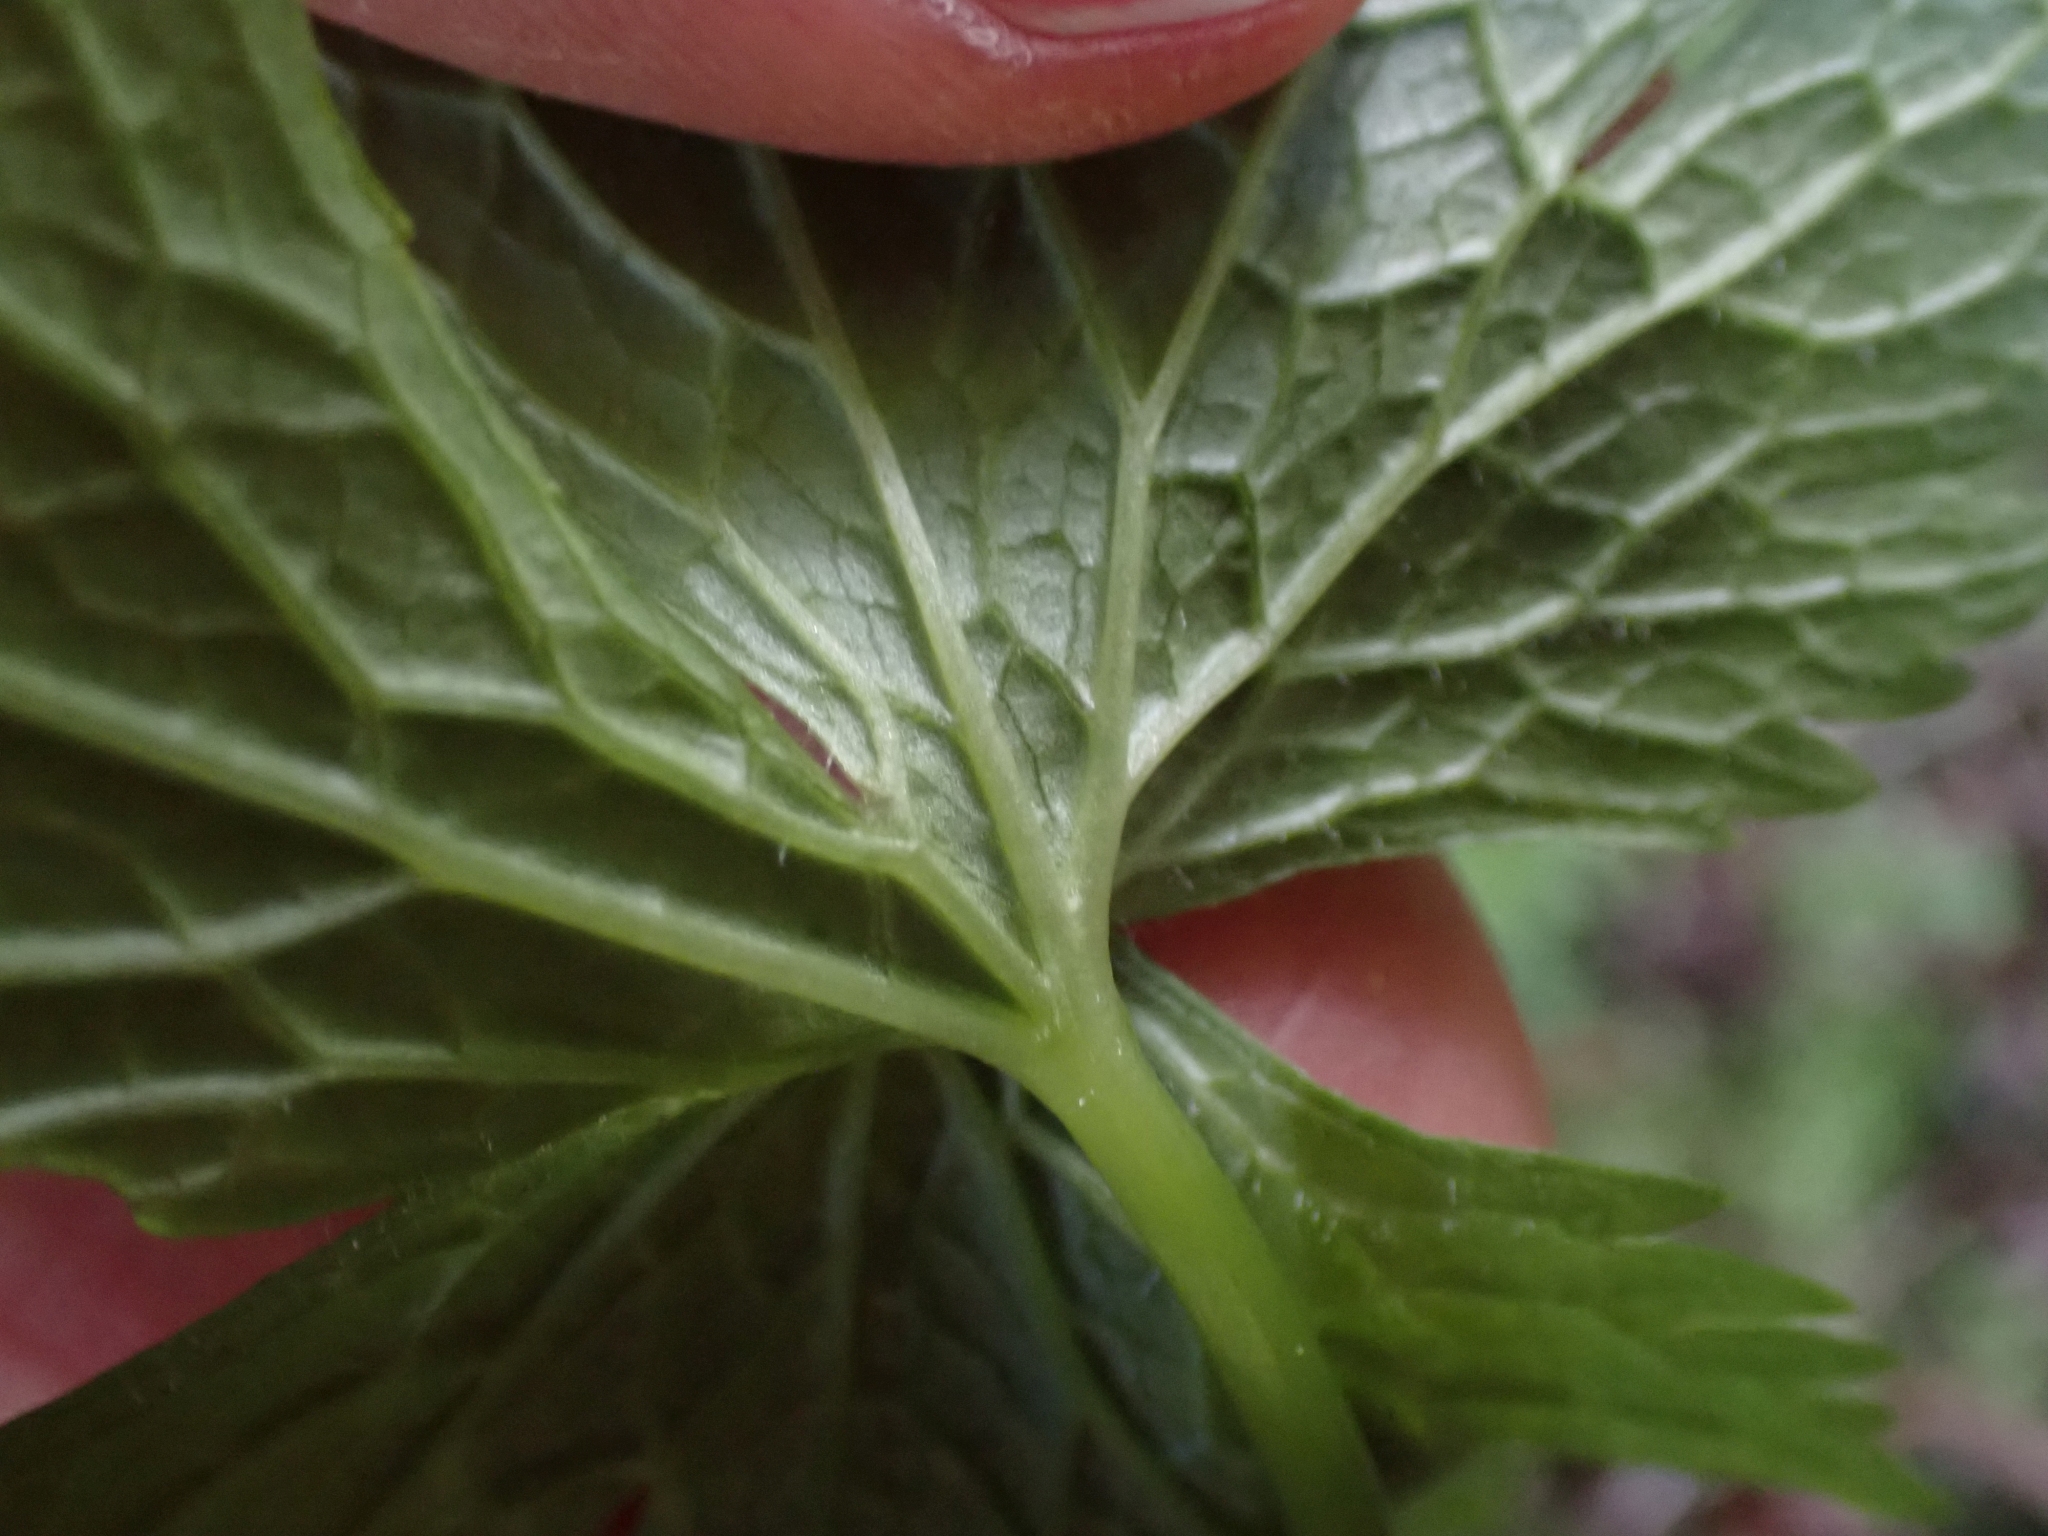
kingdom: Plantae
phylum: Tracheophyta
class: Magnoliopsida
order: Ranunculales
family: Ranunculaceae
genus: Trautvetteria
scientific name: Trautvetteria carolinensis
